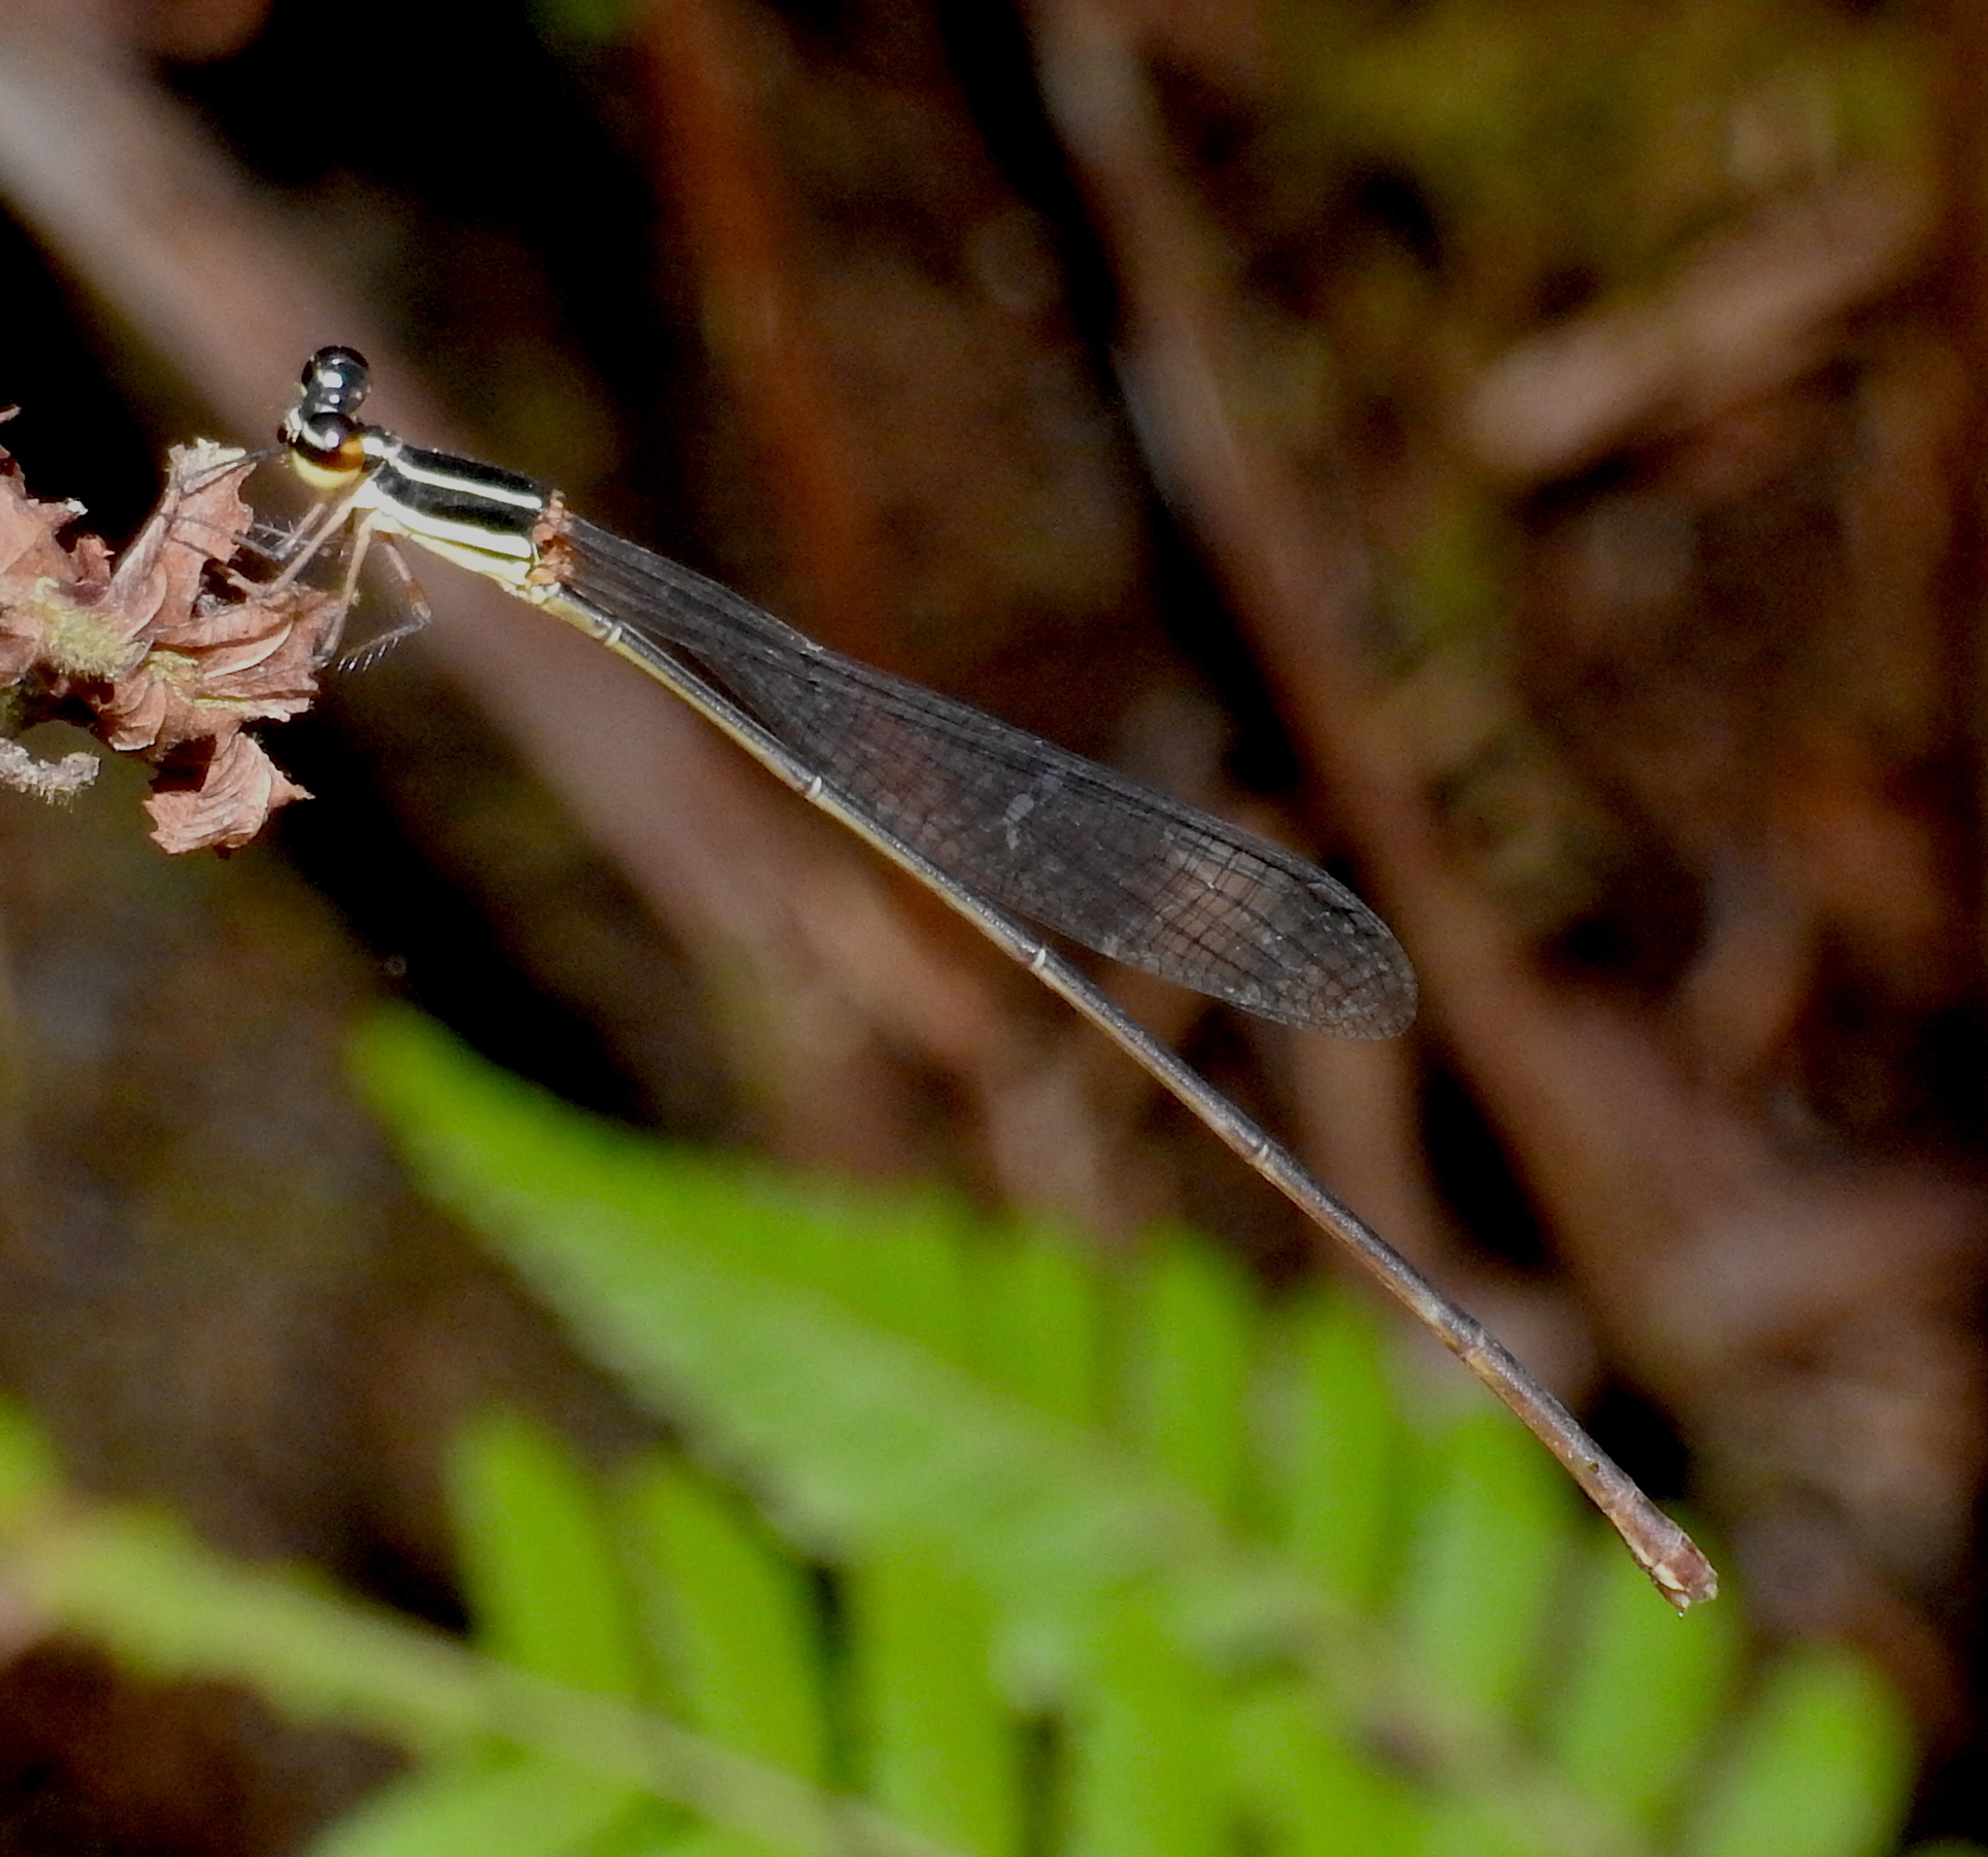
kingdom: Animalia
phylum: Arthropoda
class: Insecta
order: Odonata
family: Platycnemididae
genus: Elattoneura
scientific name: Elattoneura oculata
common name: Two-spotted threadtail
